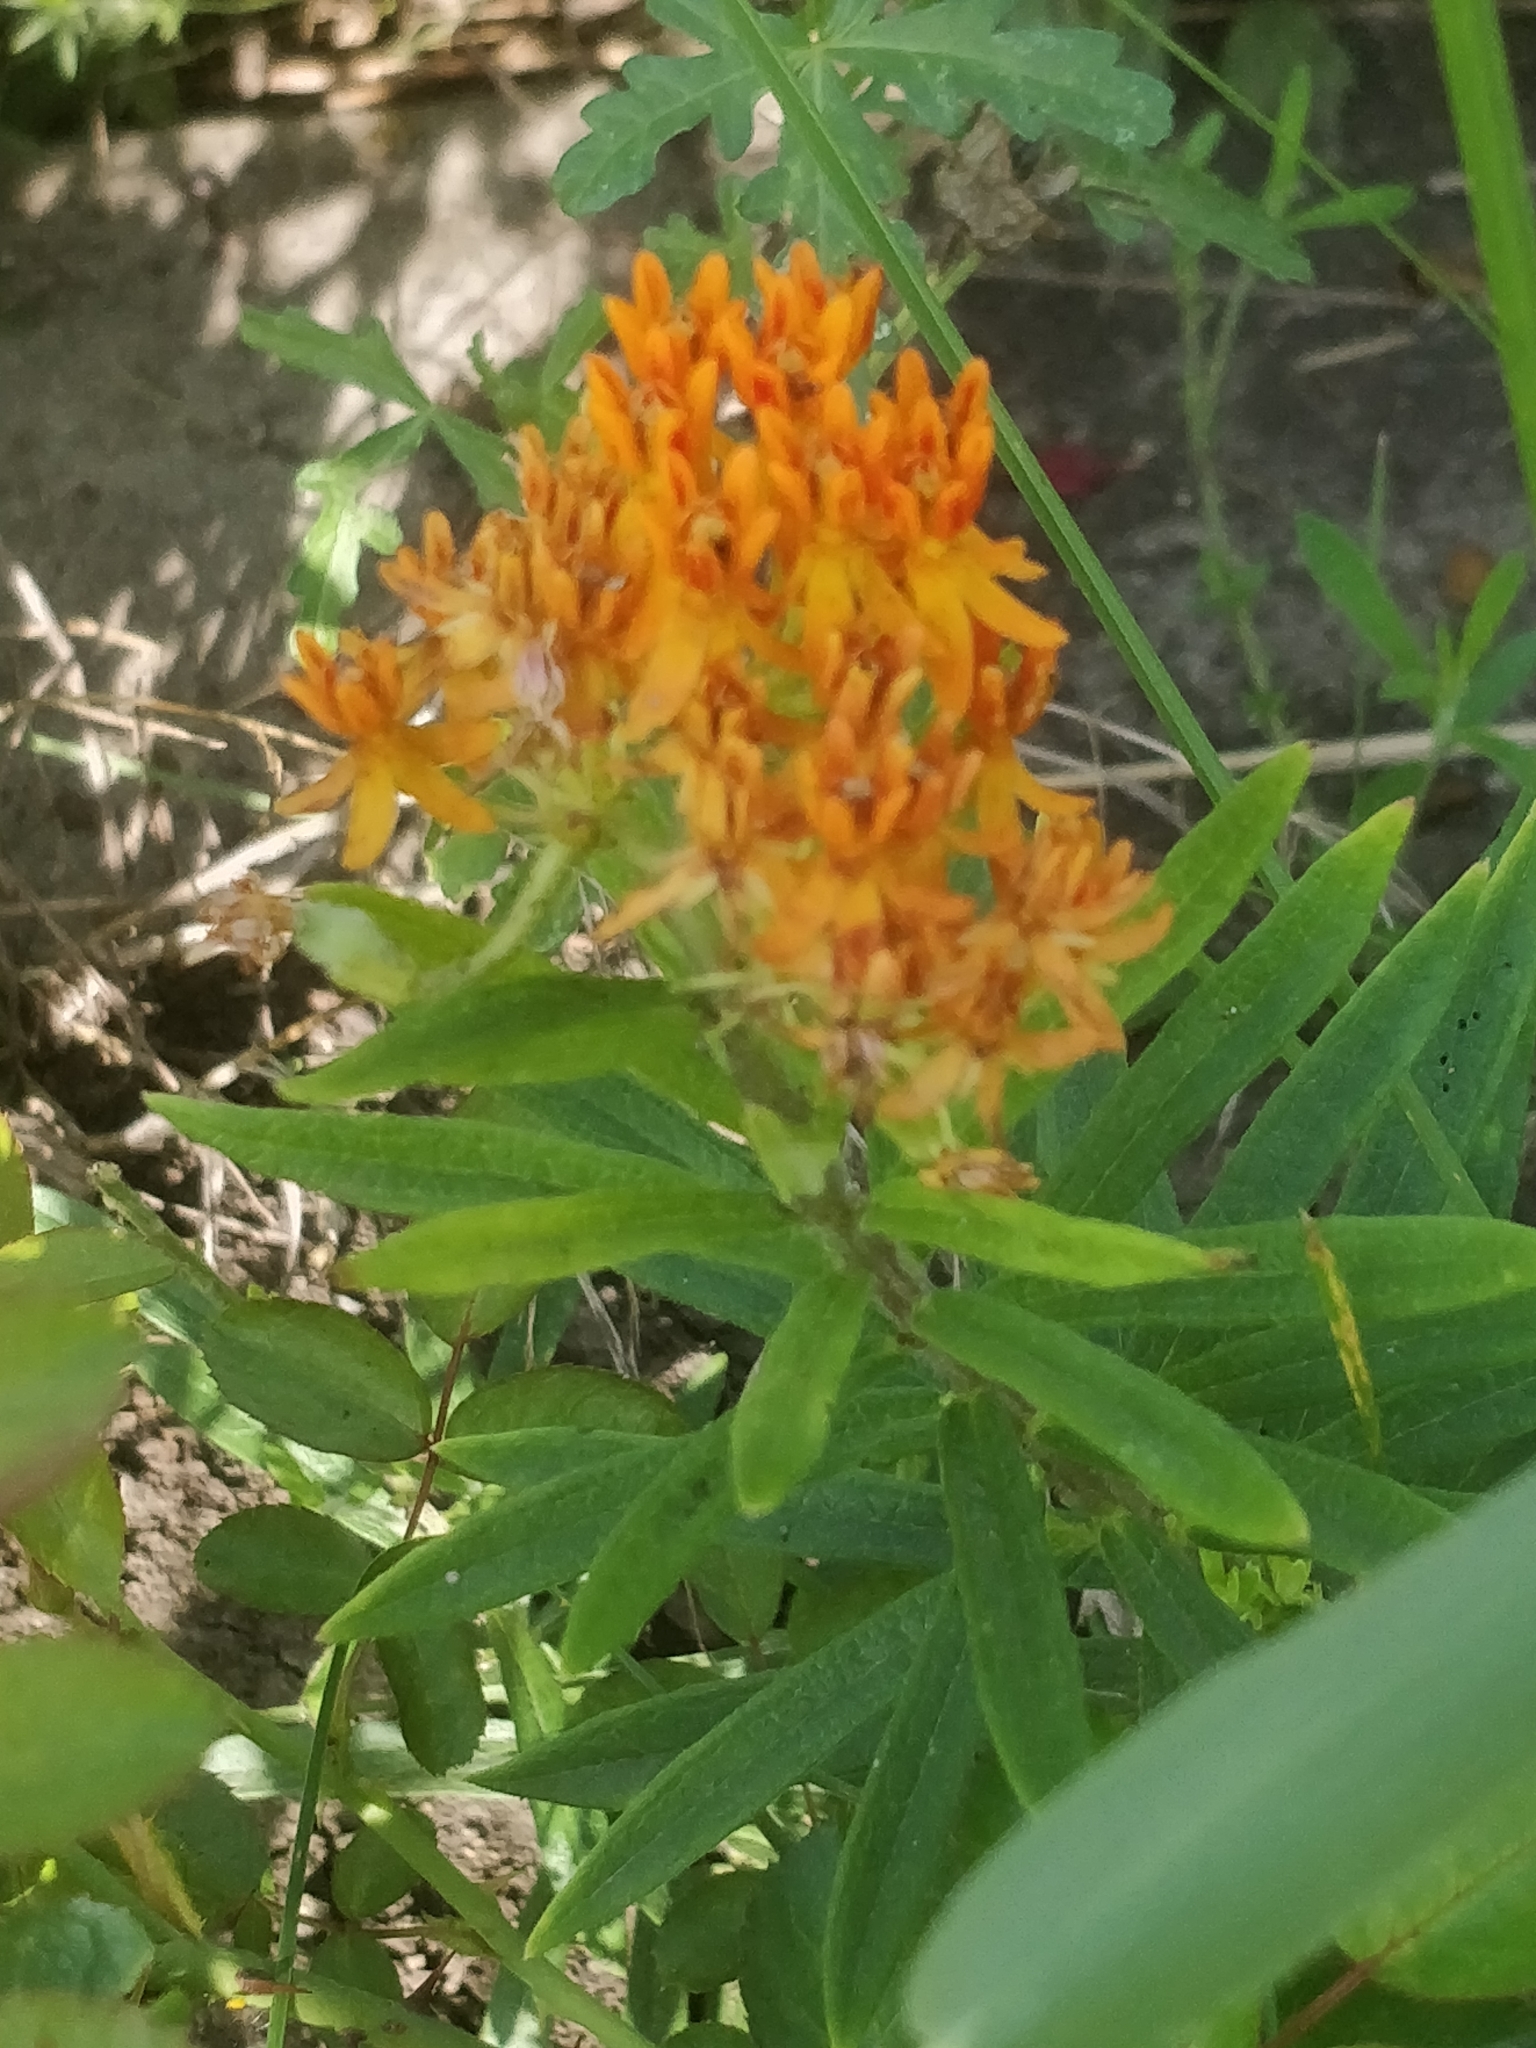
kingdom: Plantae
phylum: Tracheophyta
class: Magnoliopsida
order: Gentianales
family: Apocynaceae
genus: Asclepias
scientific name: Asclepias tuberosa
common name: Butterfly milkweed
